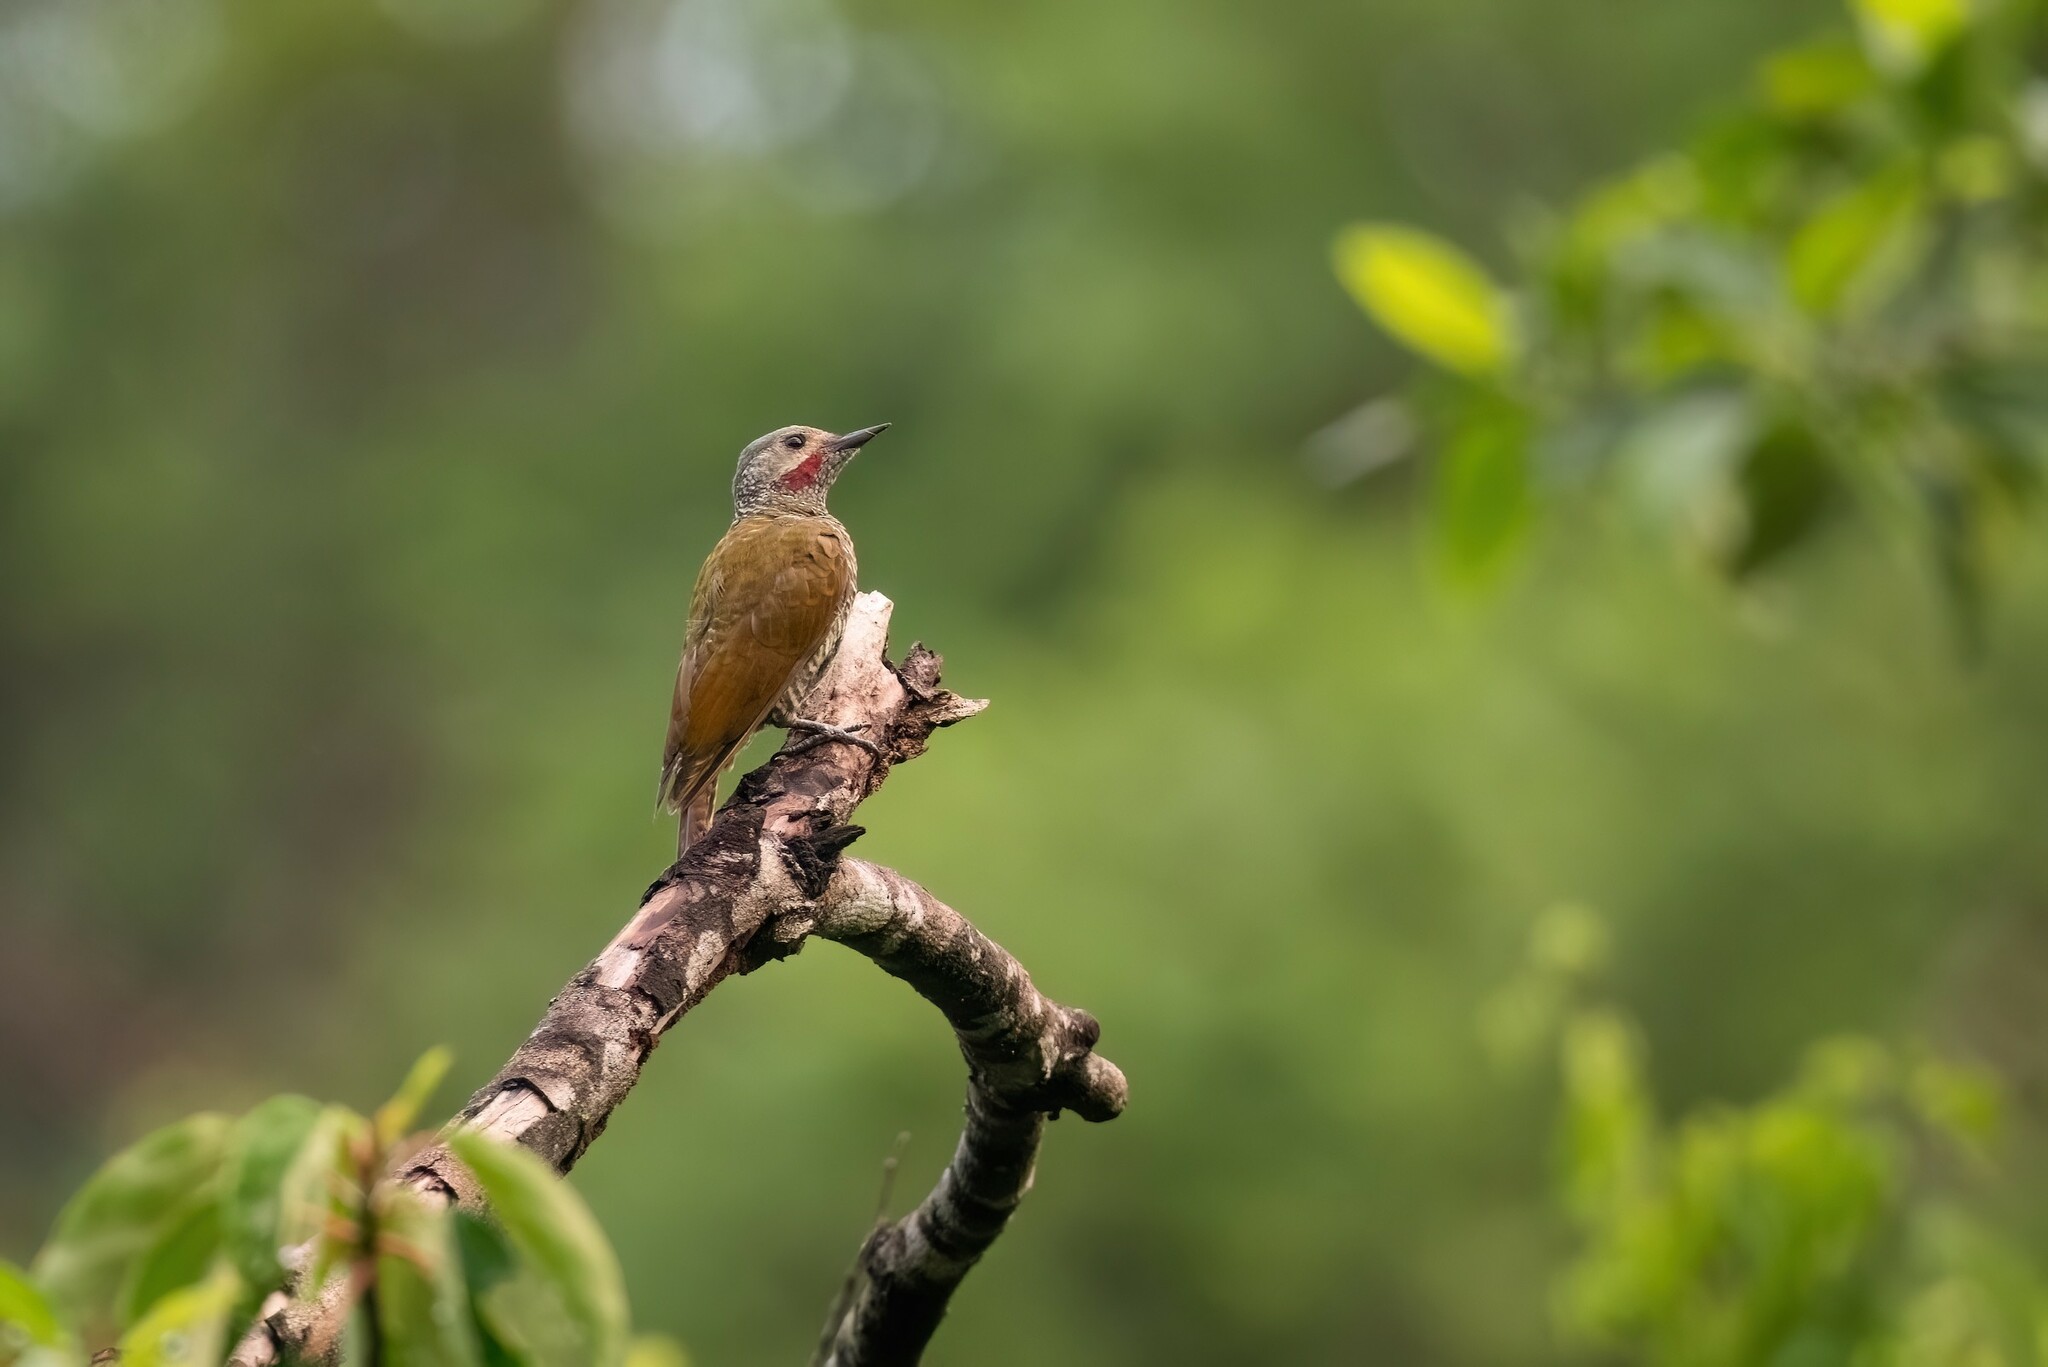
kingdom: Animalia
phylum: Chordata
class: Aves
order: Piciformes
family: Picidae
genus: Colaptes
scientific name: Colaptes auricularis
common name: Grey-crowned woodpecker
